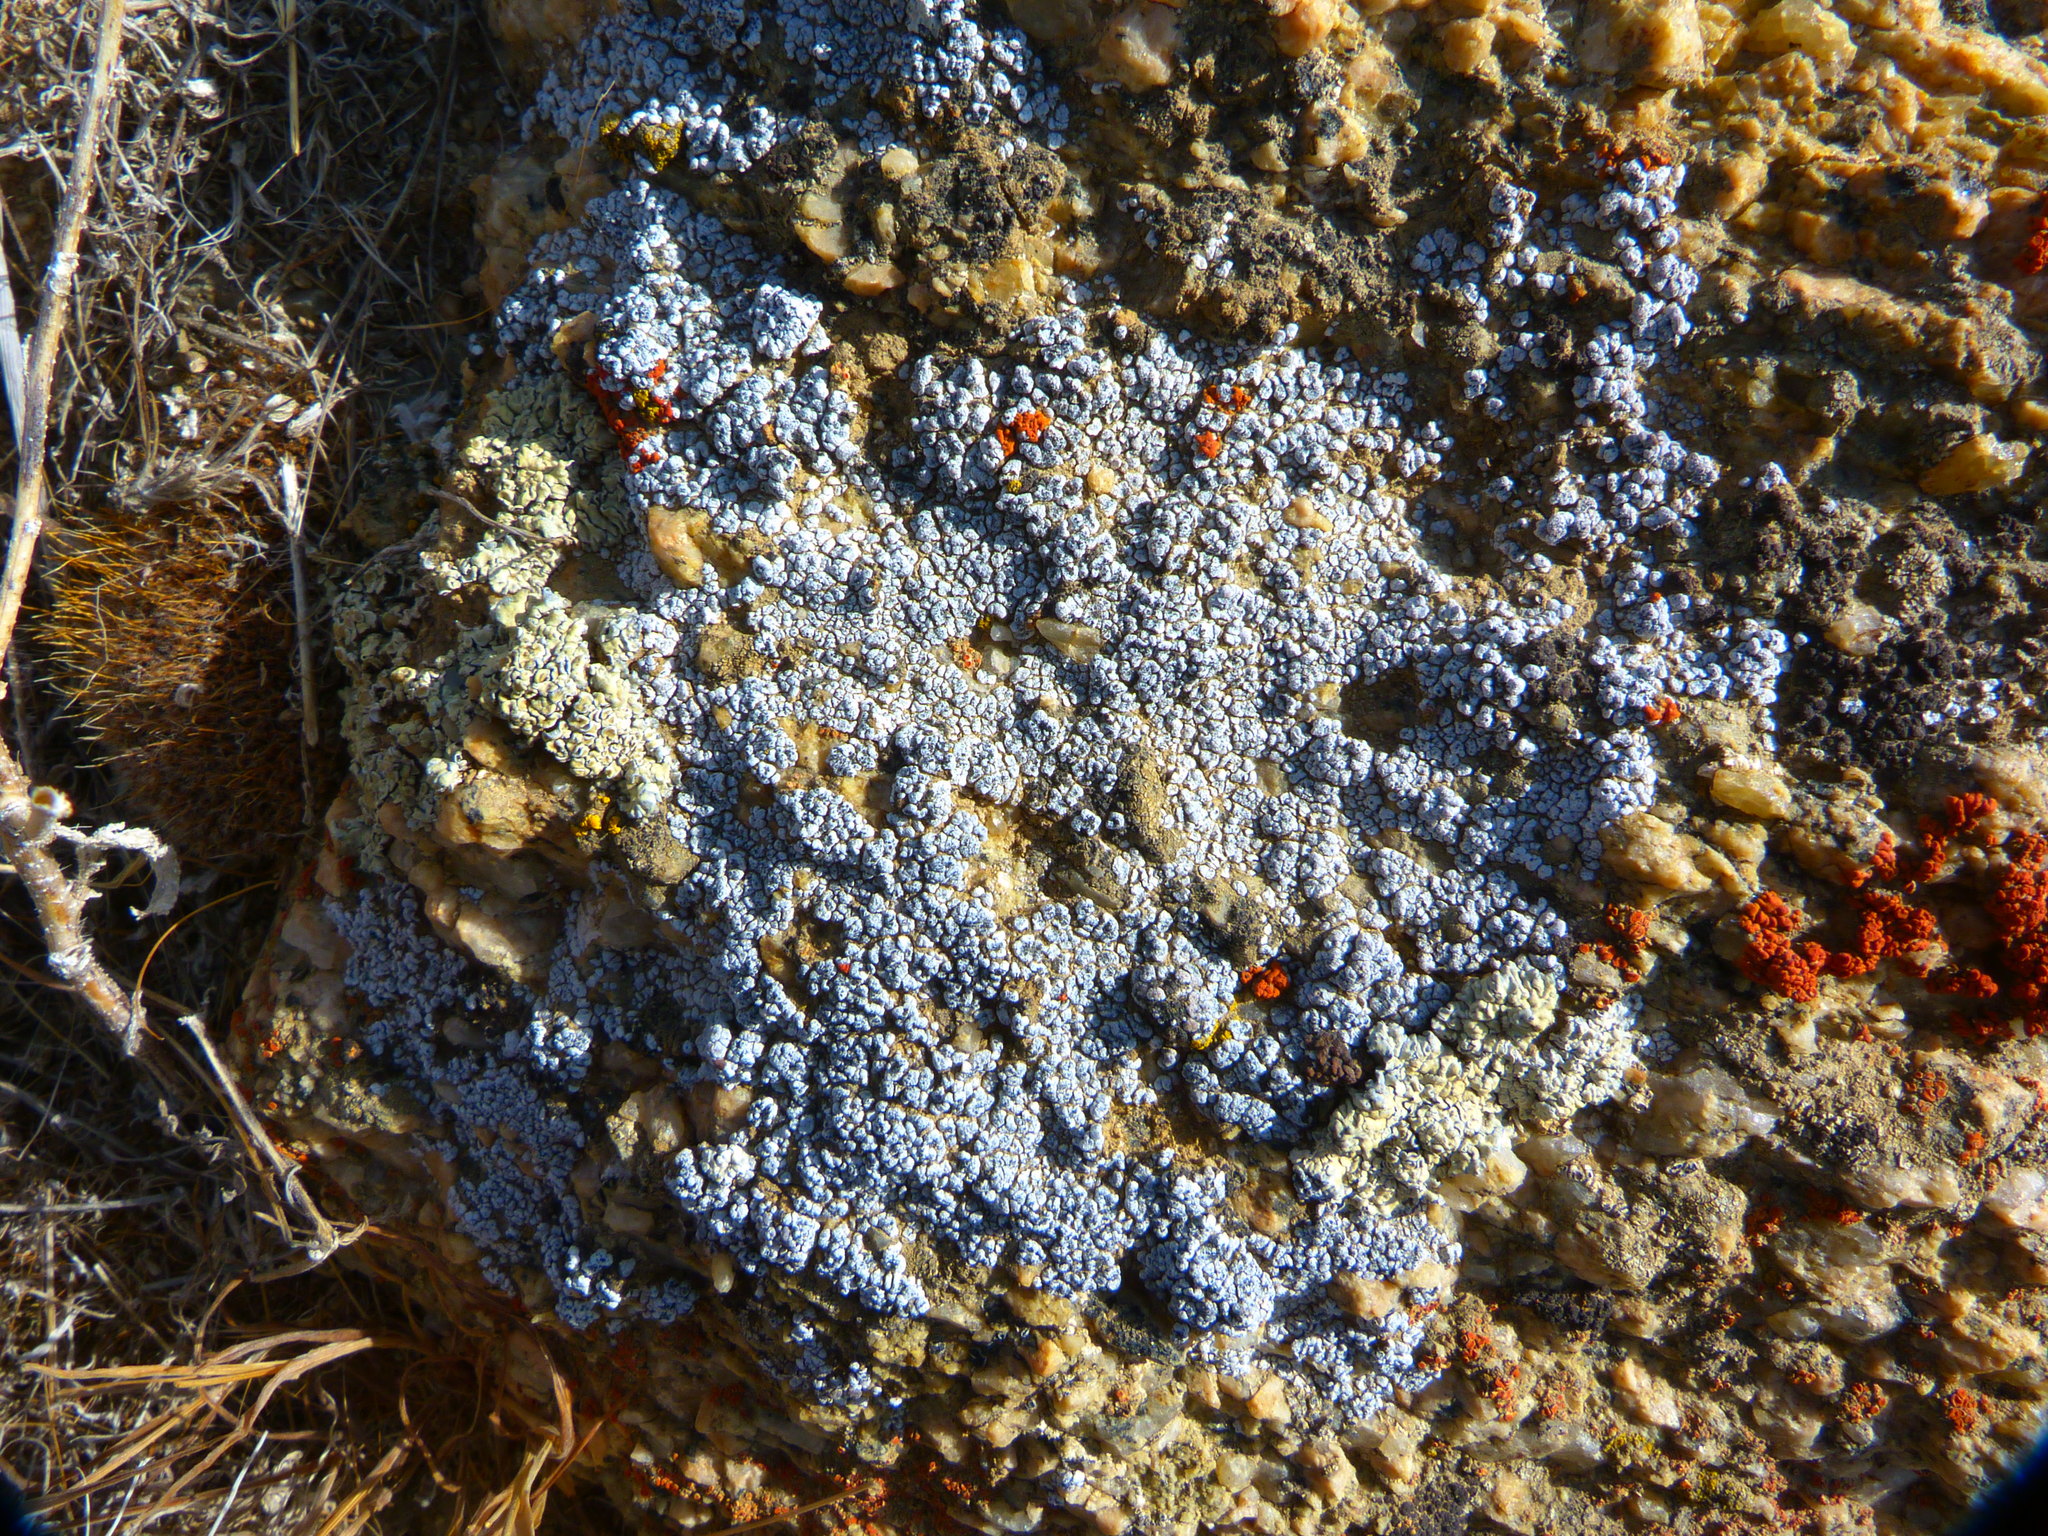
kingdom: Fungi
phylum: Ascomycota
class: Lecanoromycetes
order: Acarosporales
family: Acarosporaceae
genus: Acarospora
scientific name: Acarospora strigata
